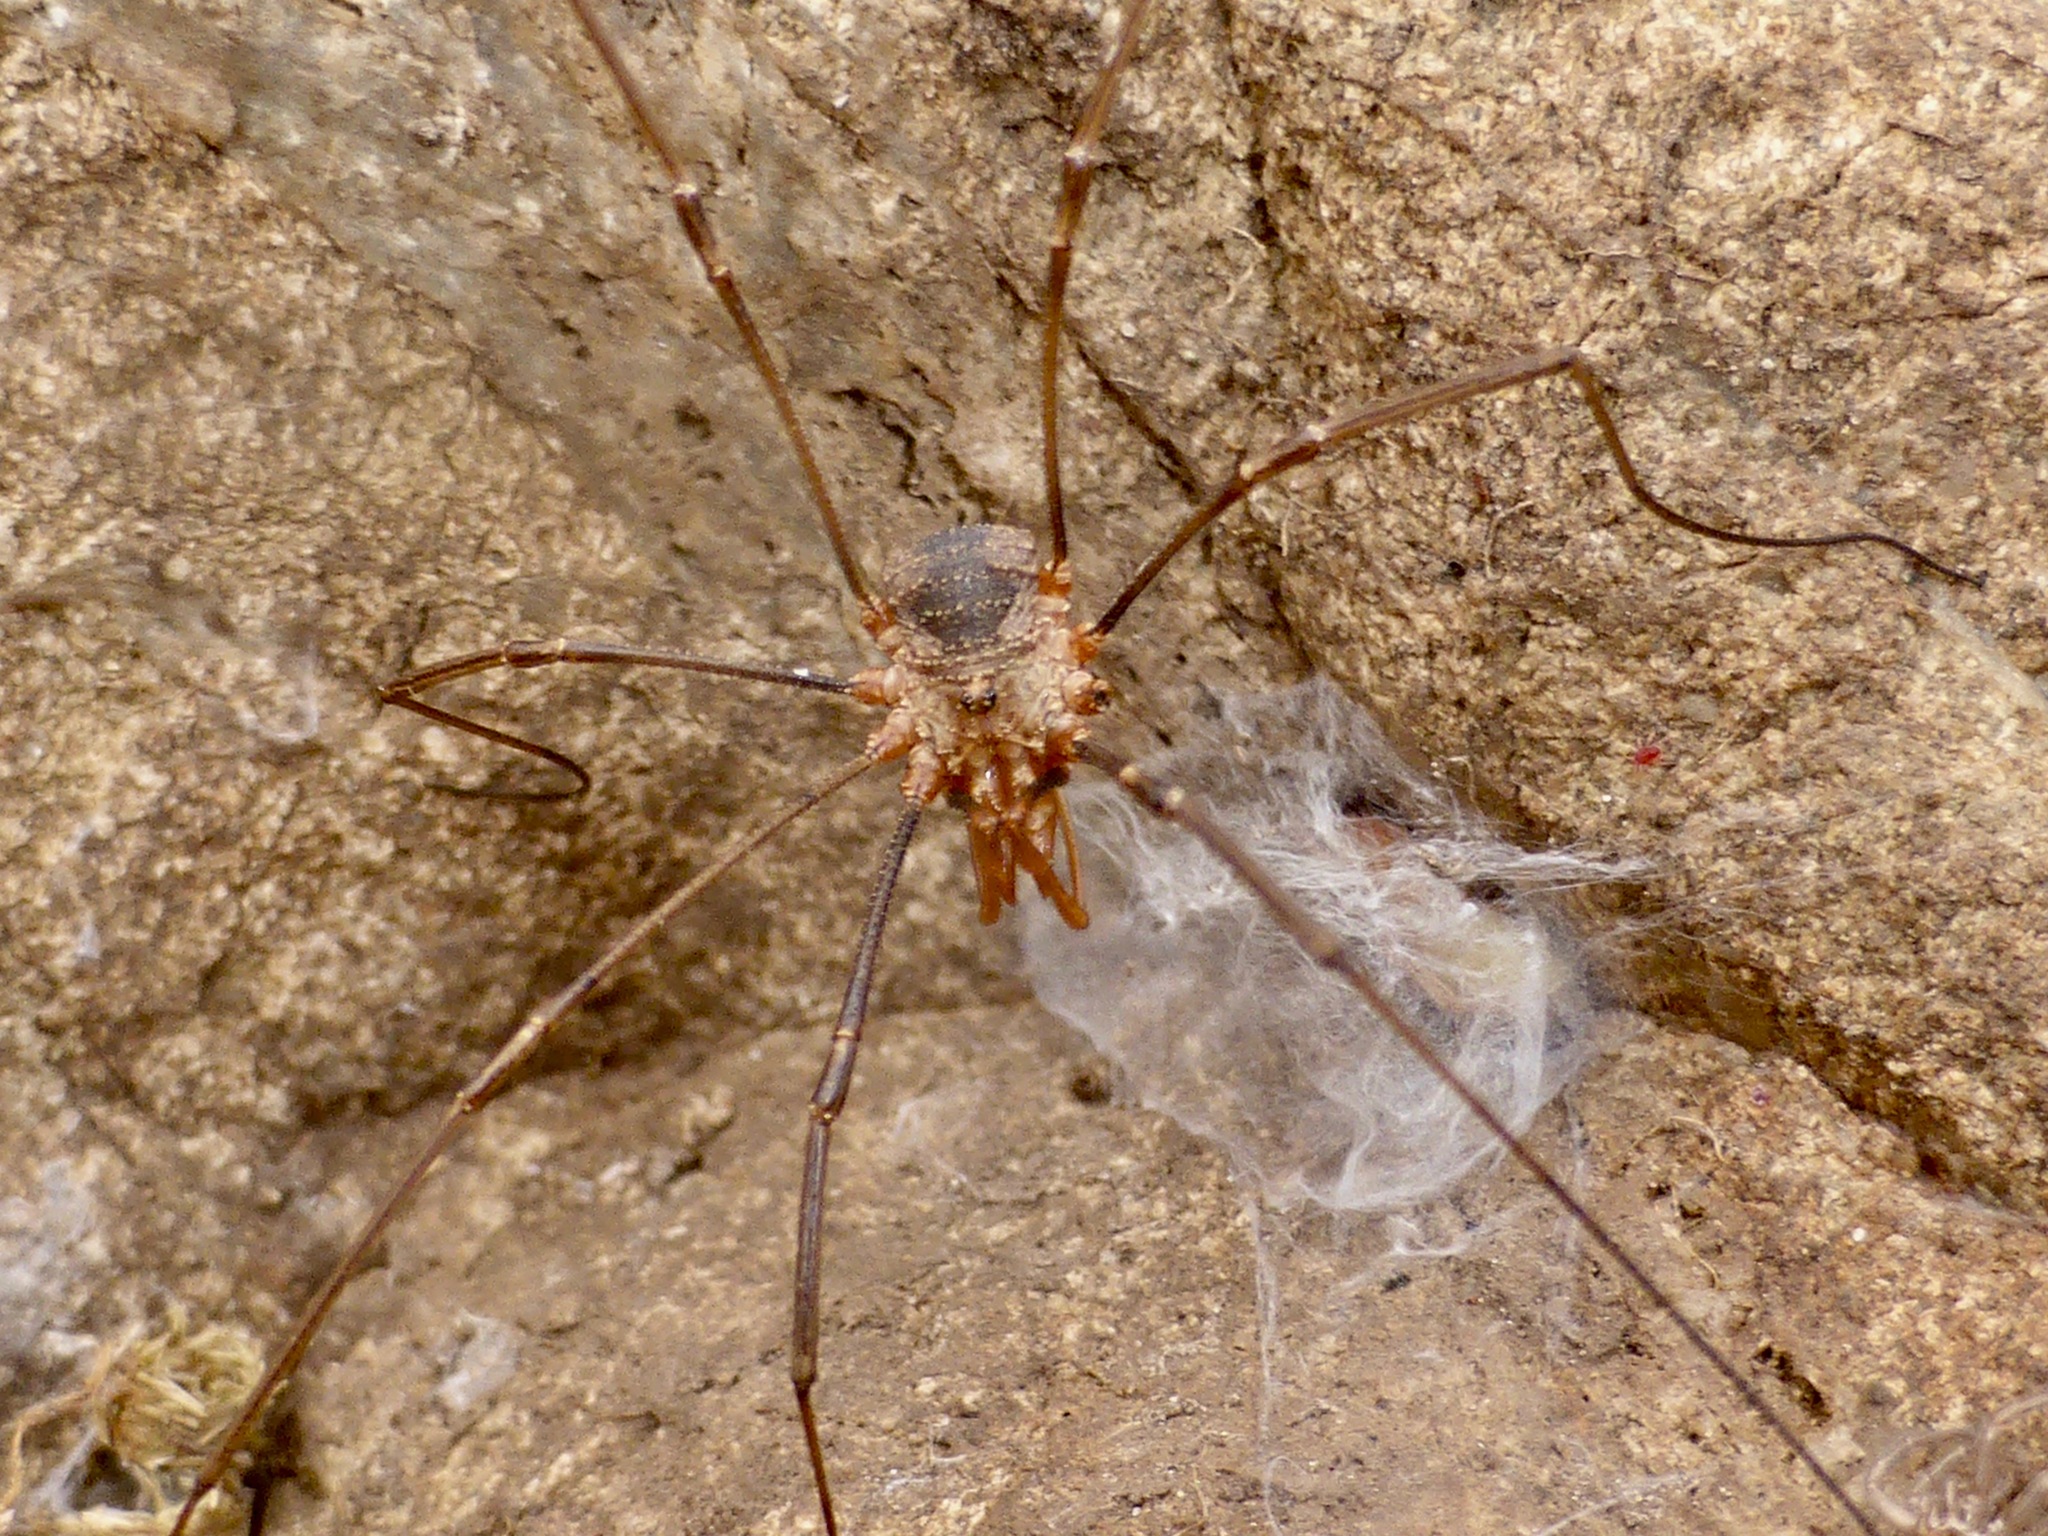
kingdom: Animalia
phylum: Arthropoda
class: Arachnida
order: Opiliones
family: Phalangiidae
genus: Phalangium
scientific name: Phalangium opilio
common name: Daddy longleg
